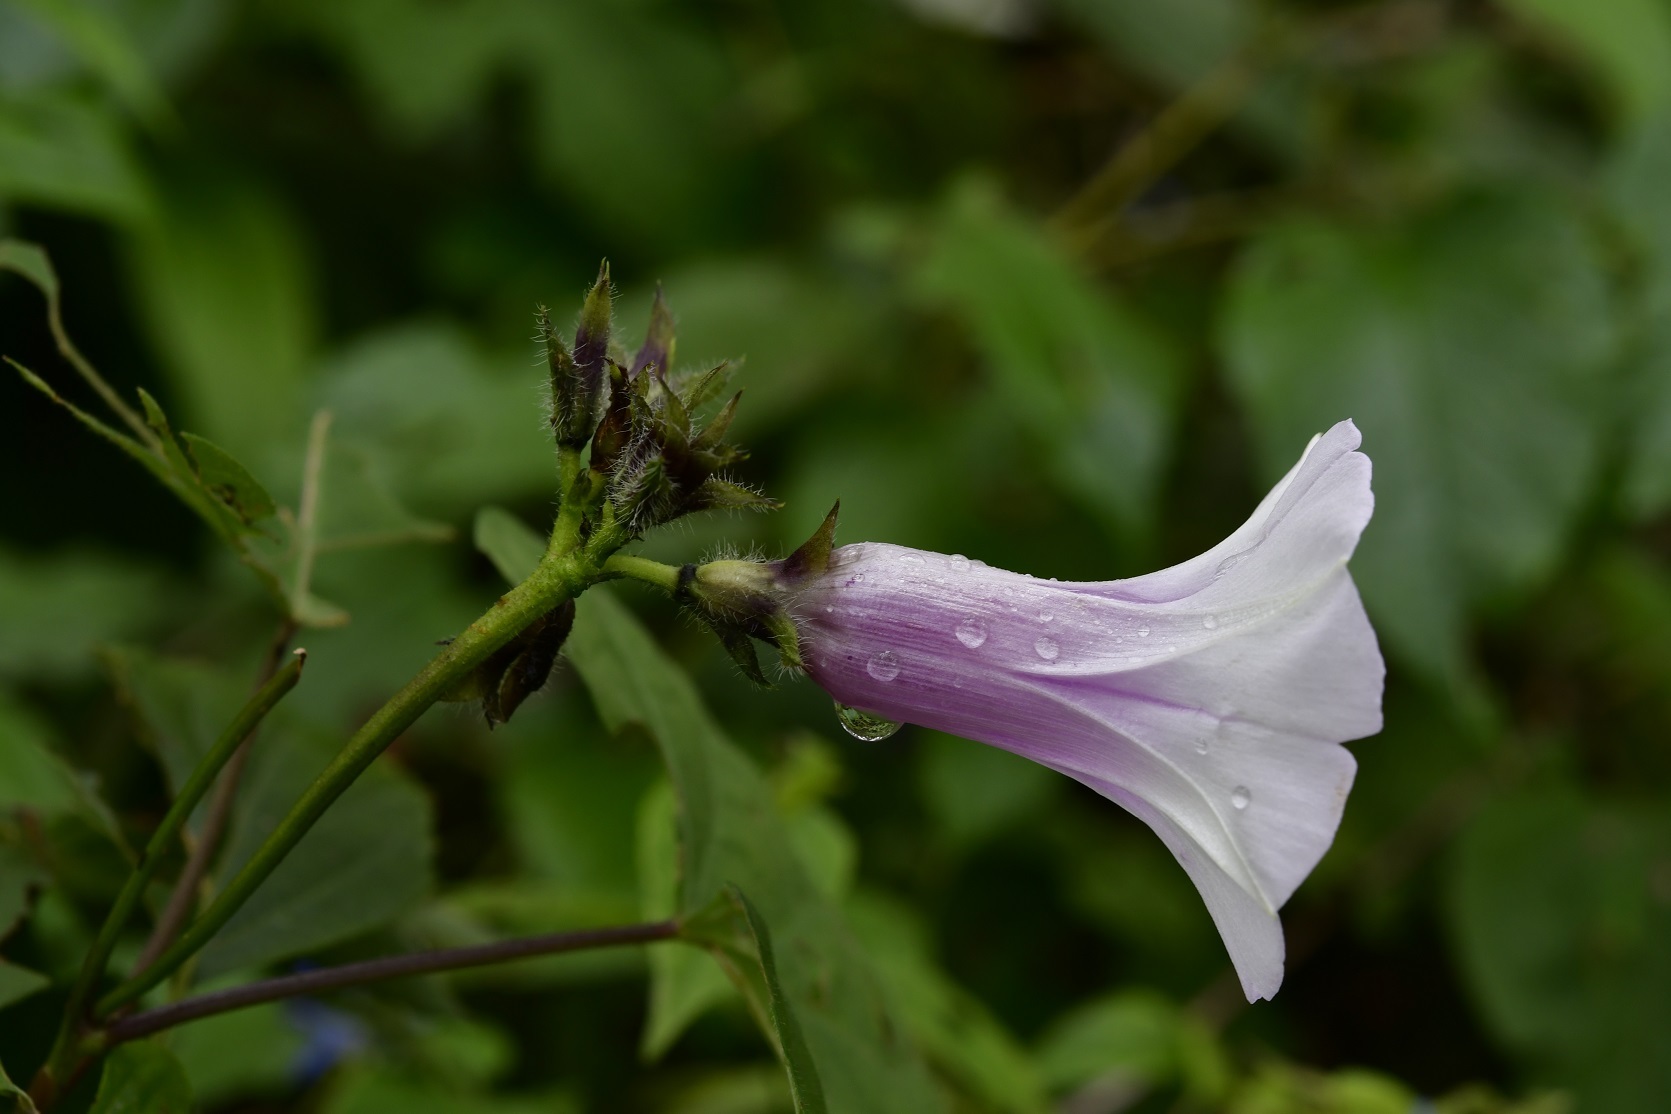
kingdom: Plantae
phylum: Tracheophyta
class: Magnoliopsida
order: Solanales
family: Convolvulaceae
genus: Ipomoea
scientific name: Ipomoea batatas
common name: Sweet-potato
